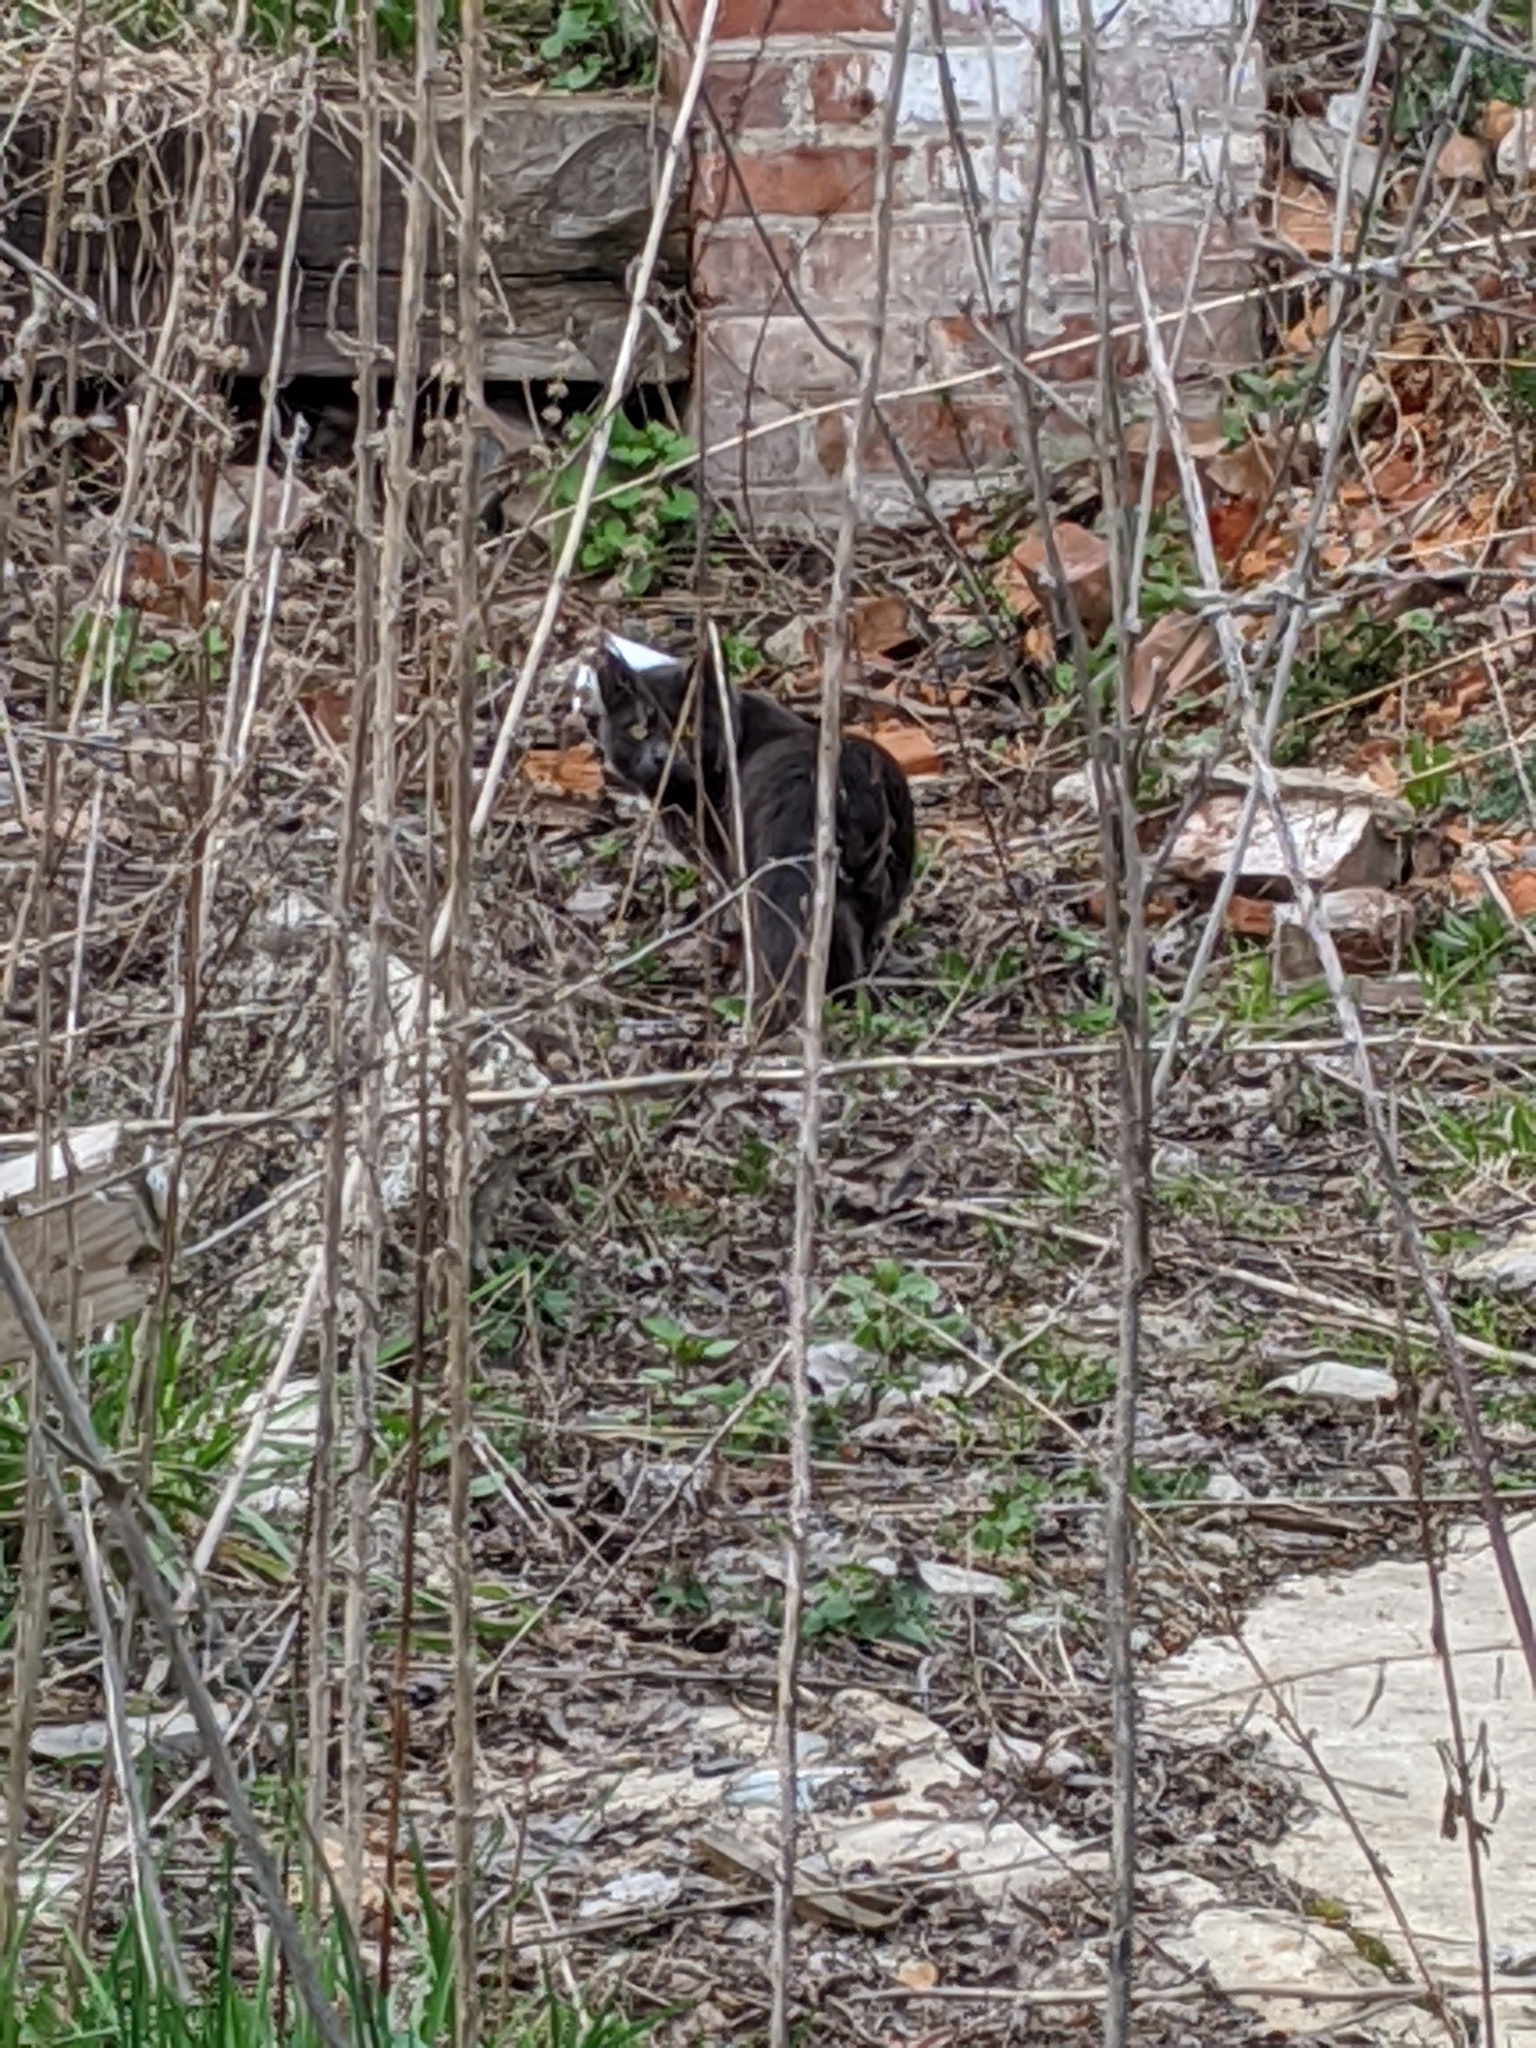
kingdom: Animalia
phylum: Chordata
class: Mammalia
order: Carnivora
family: Felidae
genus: Felis
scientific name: Felis catus
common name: Domestic cat
